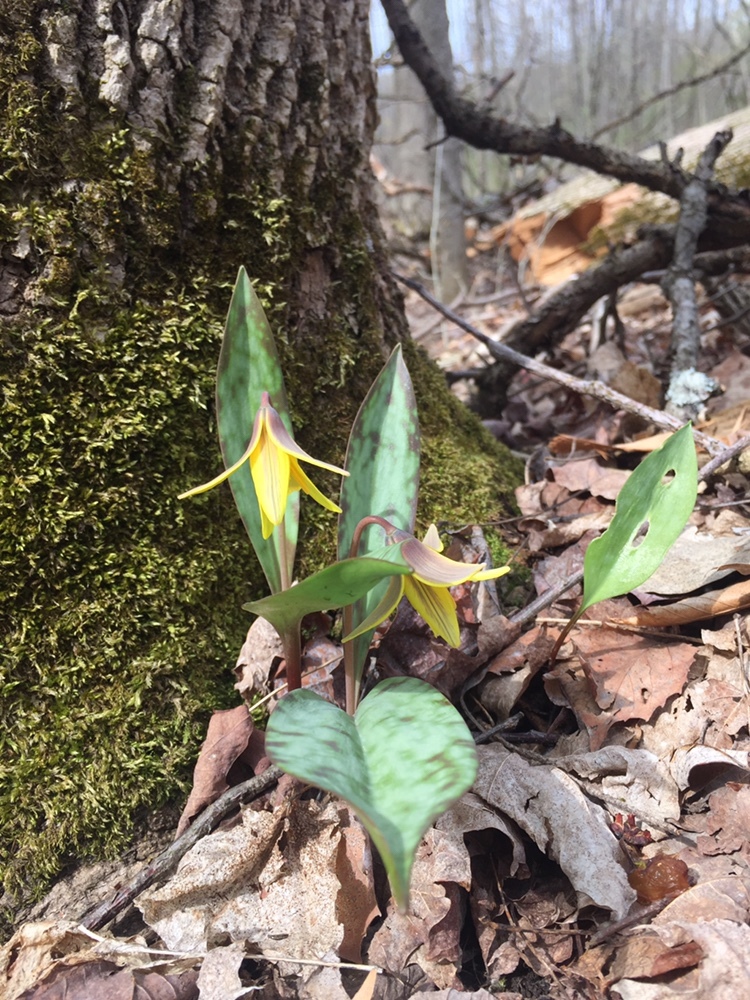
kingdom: Plantae
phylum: Tracheophyta
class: Liliopsida
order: Liliales
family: Liliaceae
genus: Erythronium
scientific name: Erythronium americanum
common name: Yellow adder's-tongue
